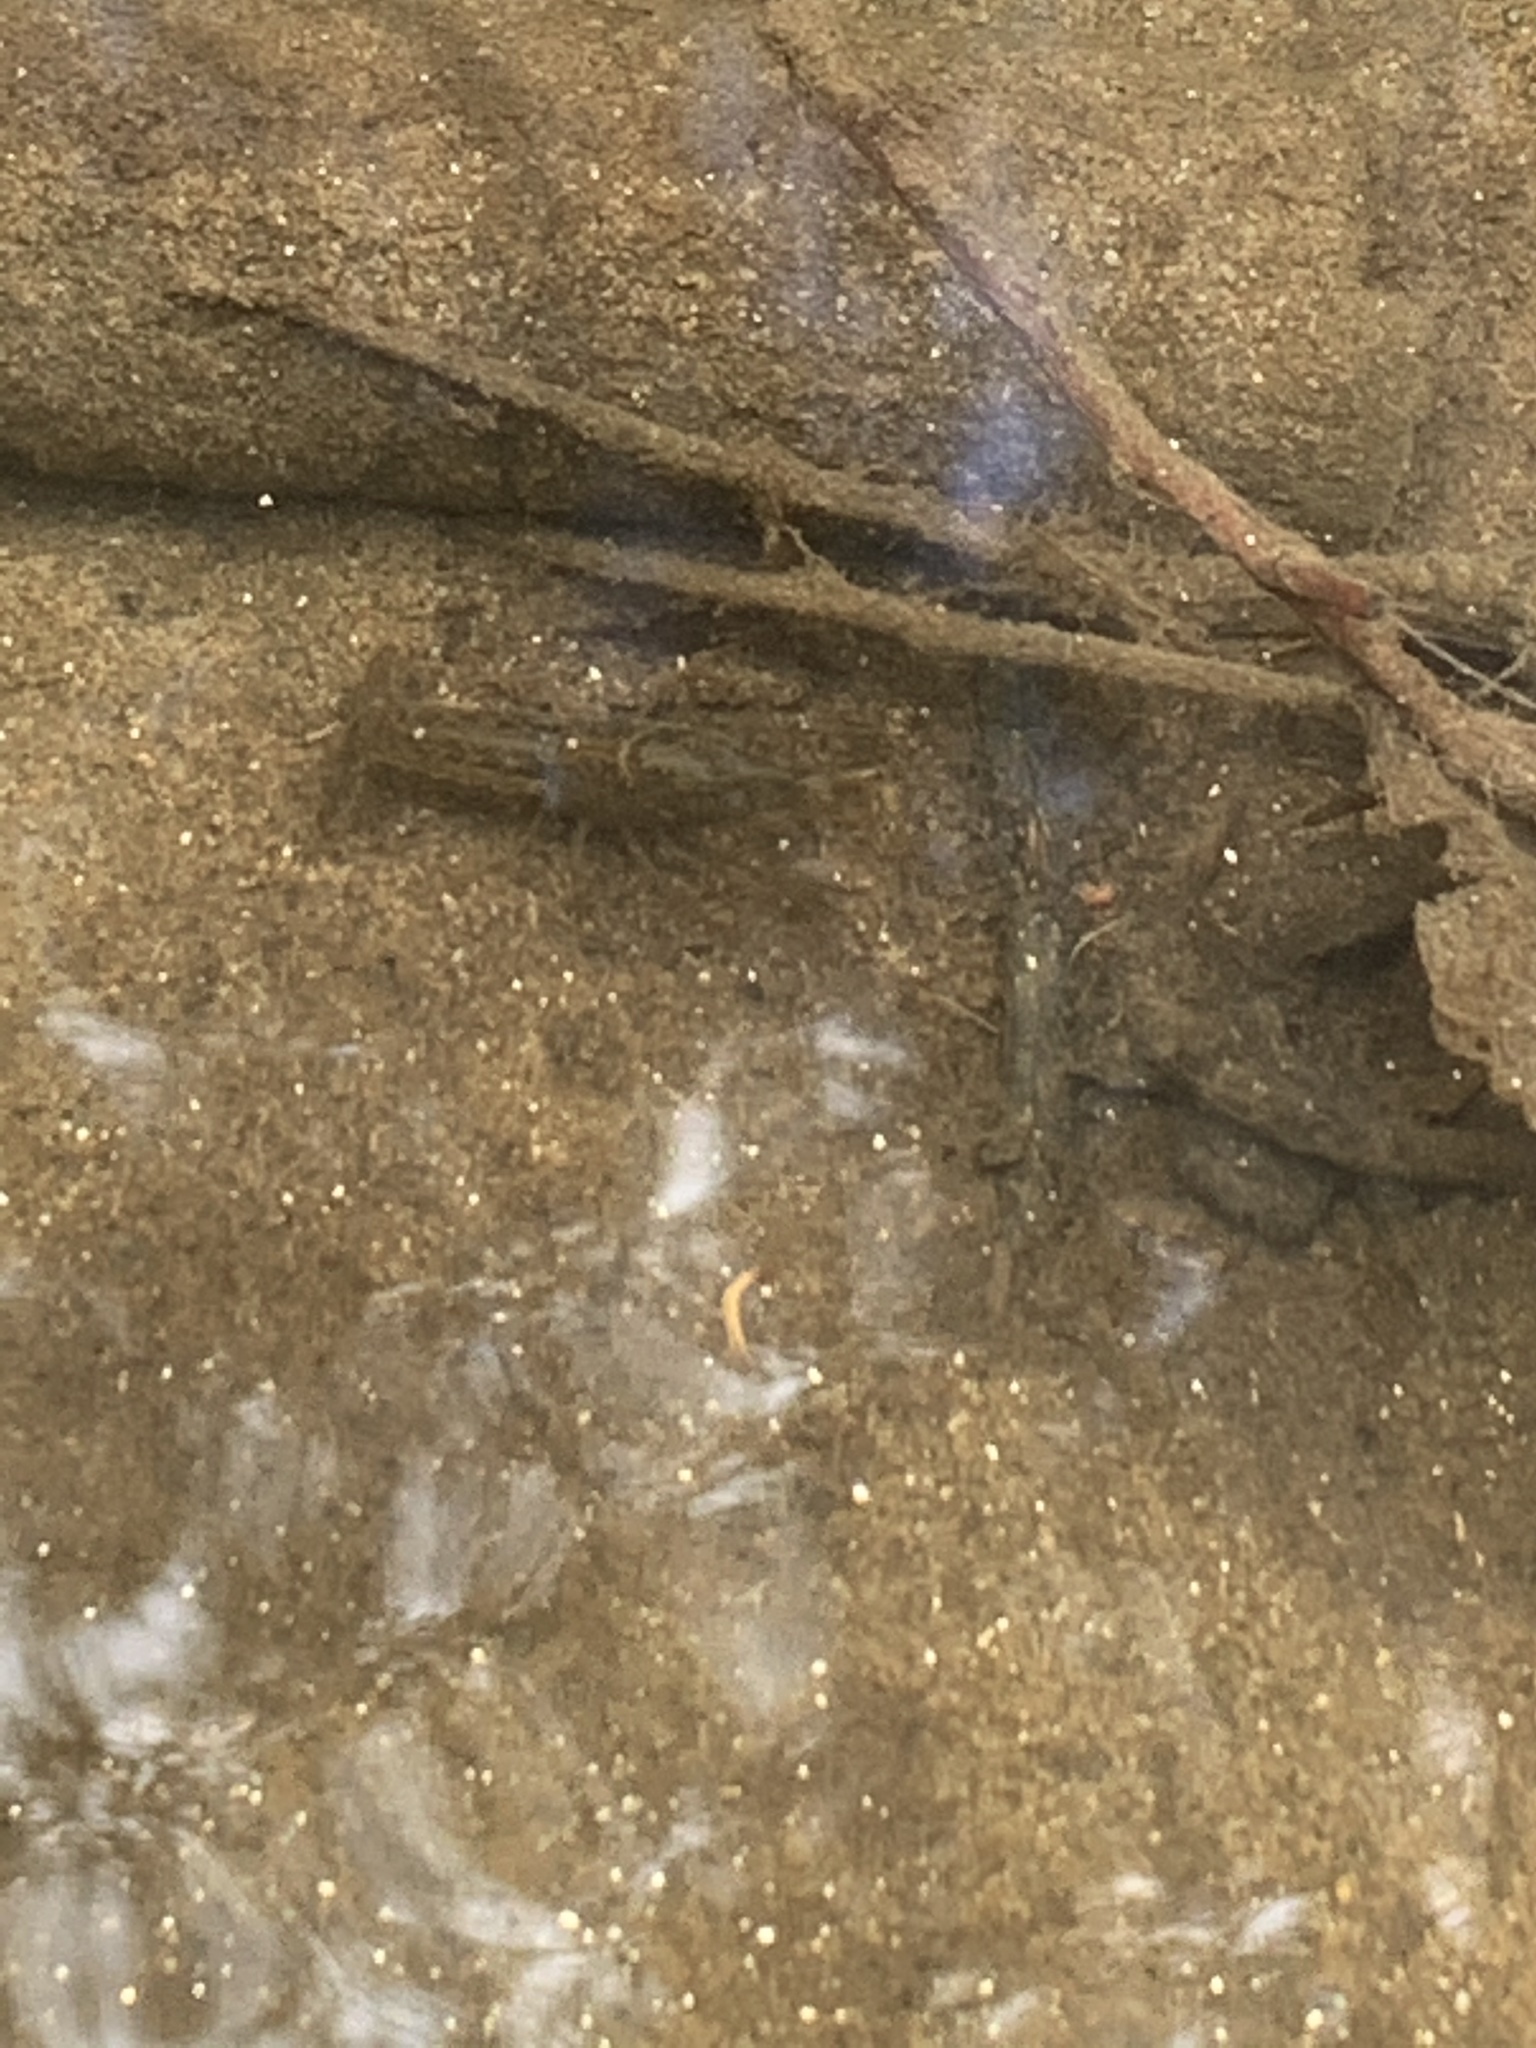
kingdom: Animalia
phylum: Arthropoda
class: Malacostraca
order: Decapoda
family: Cambaridae
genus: Procambarus
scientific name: Procambarus clarkii
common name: Red swamp crayfish
